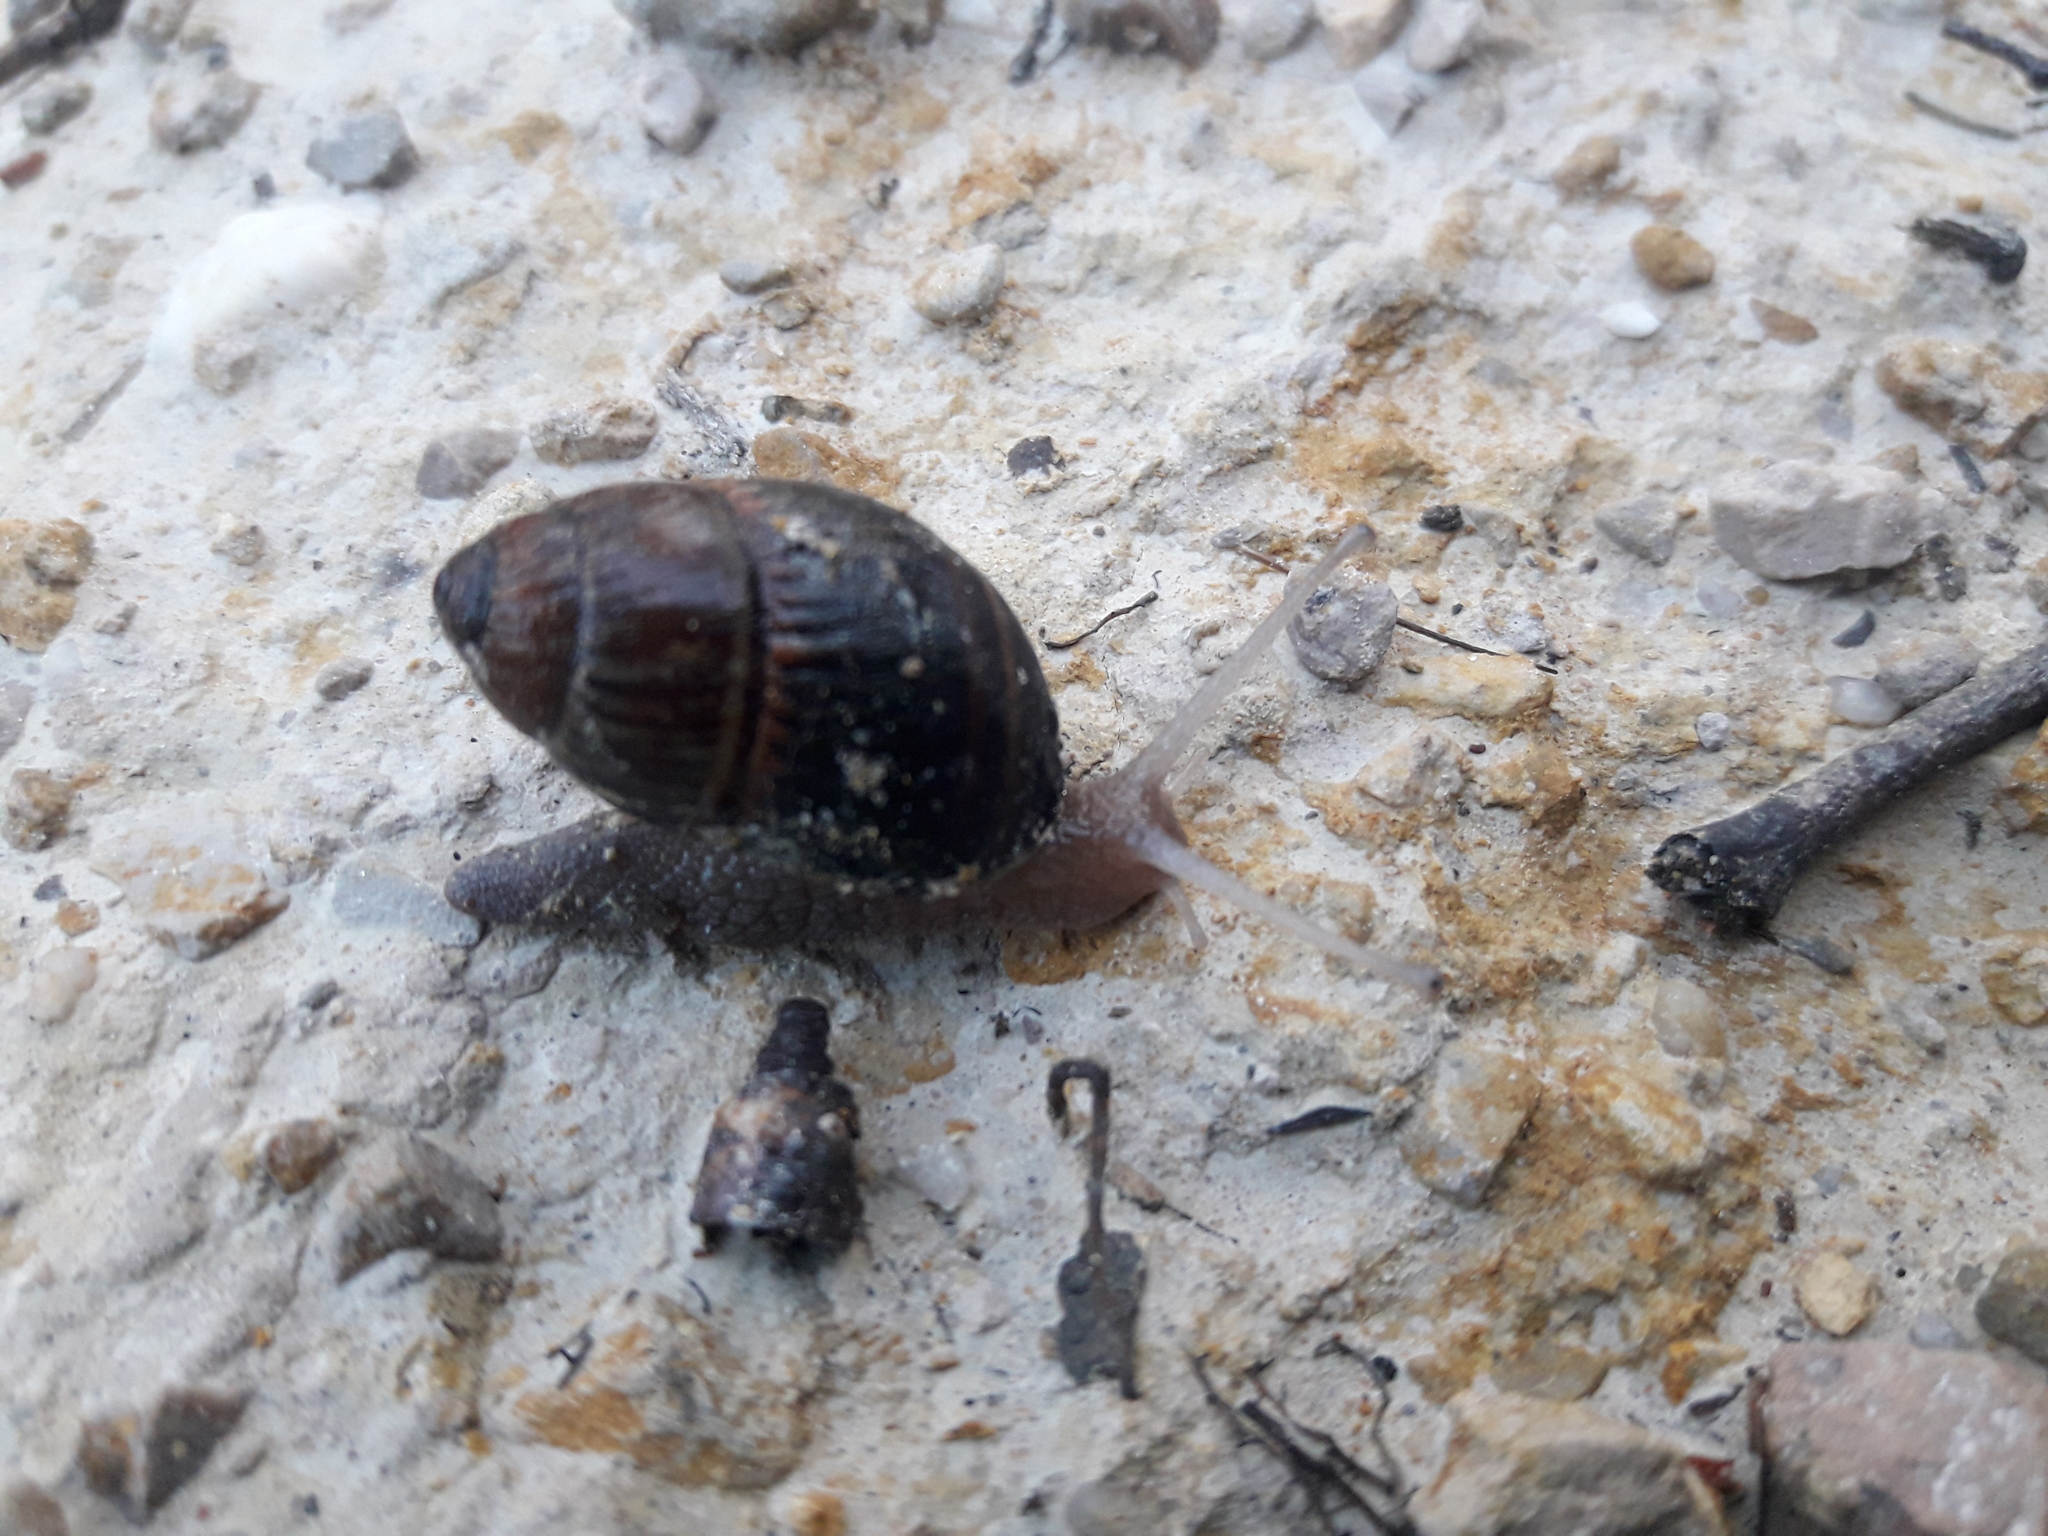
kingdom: Animalia
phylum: Mollusca
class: Gastropoda
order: Stylommatophora
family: Caryodidae
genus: Caryodes
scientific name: Caryodes dufresnii
